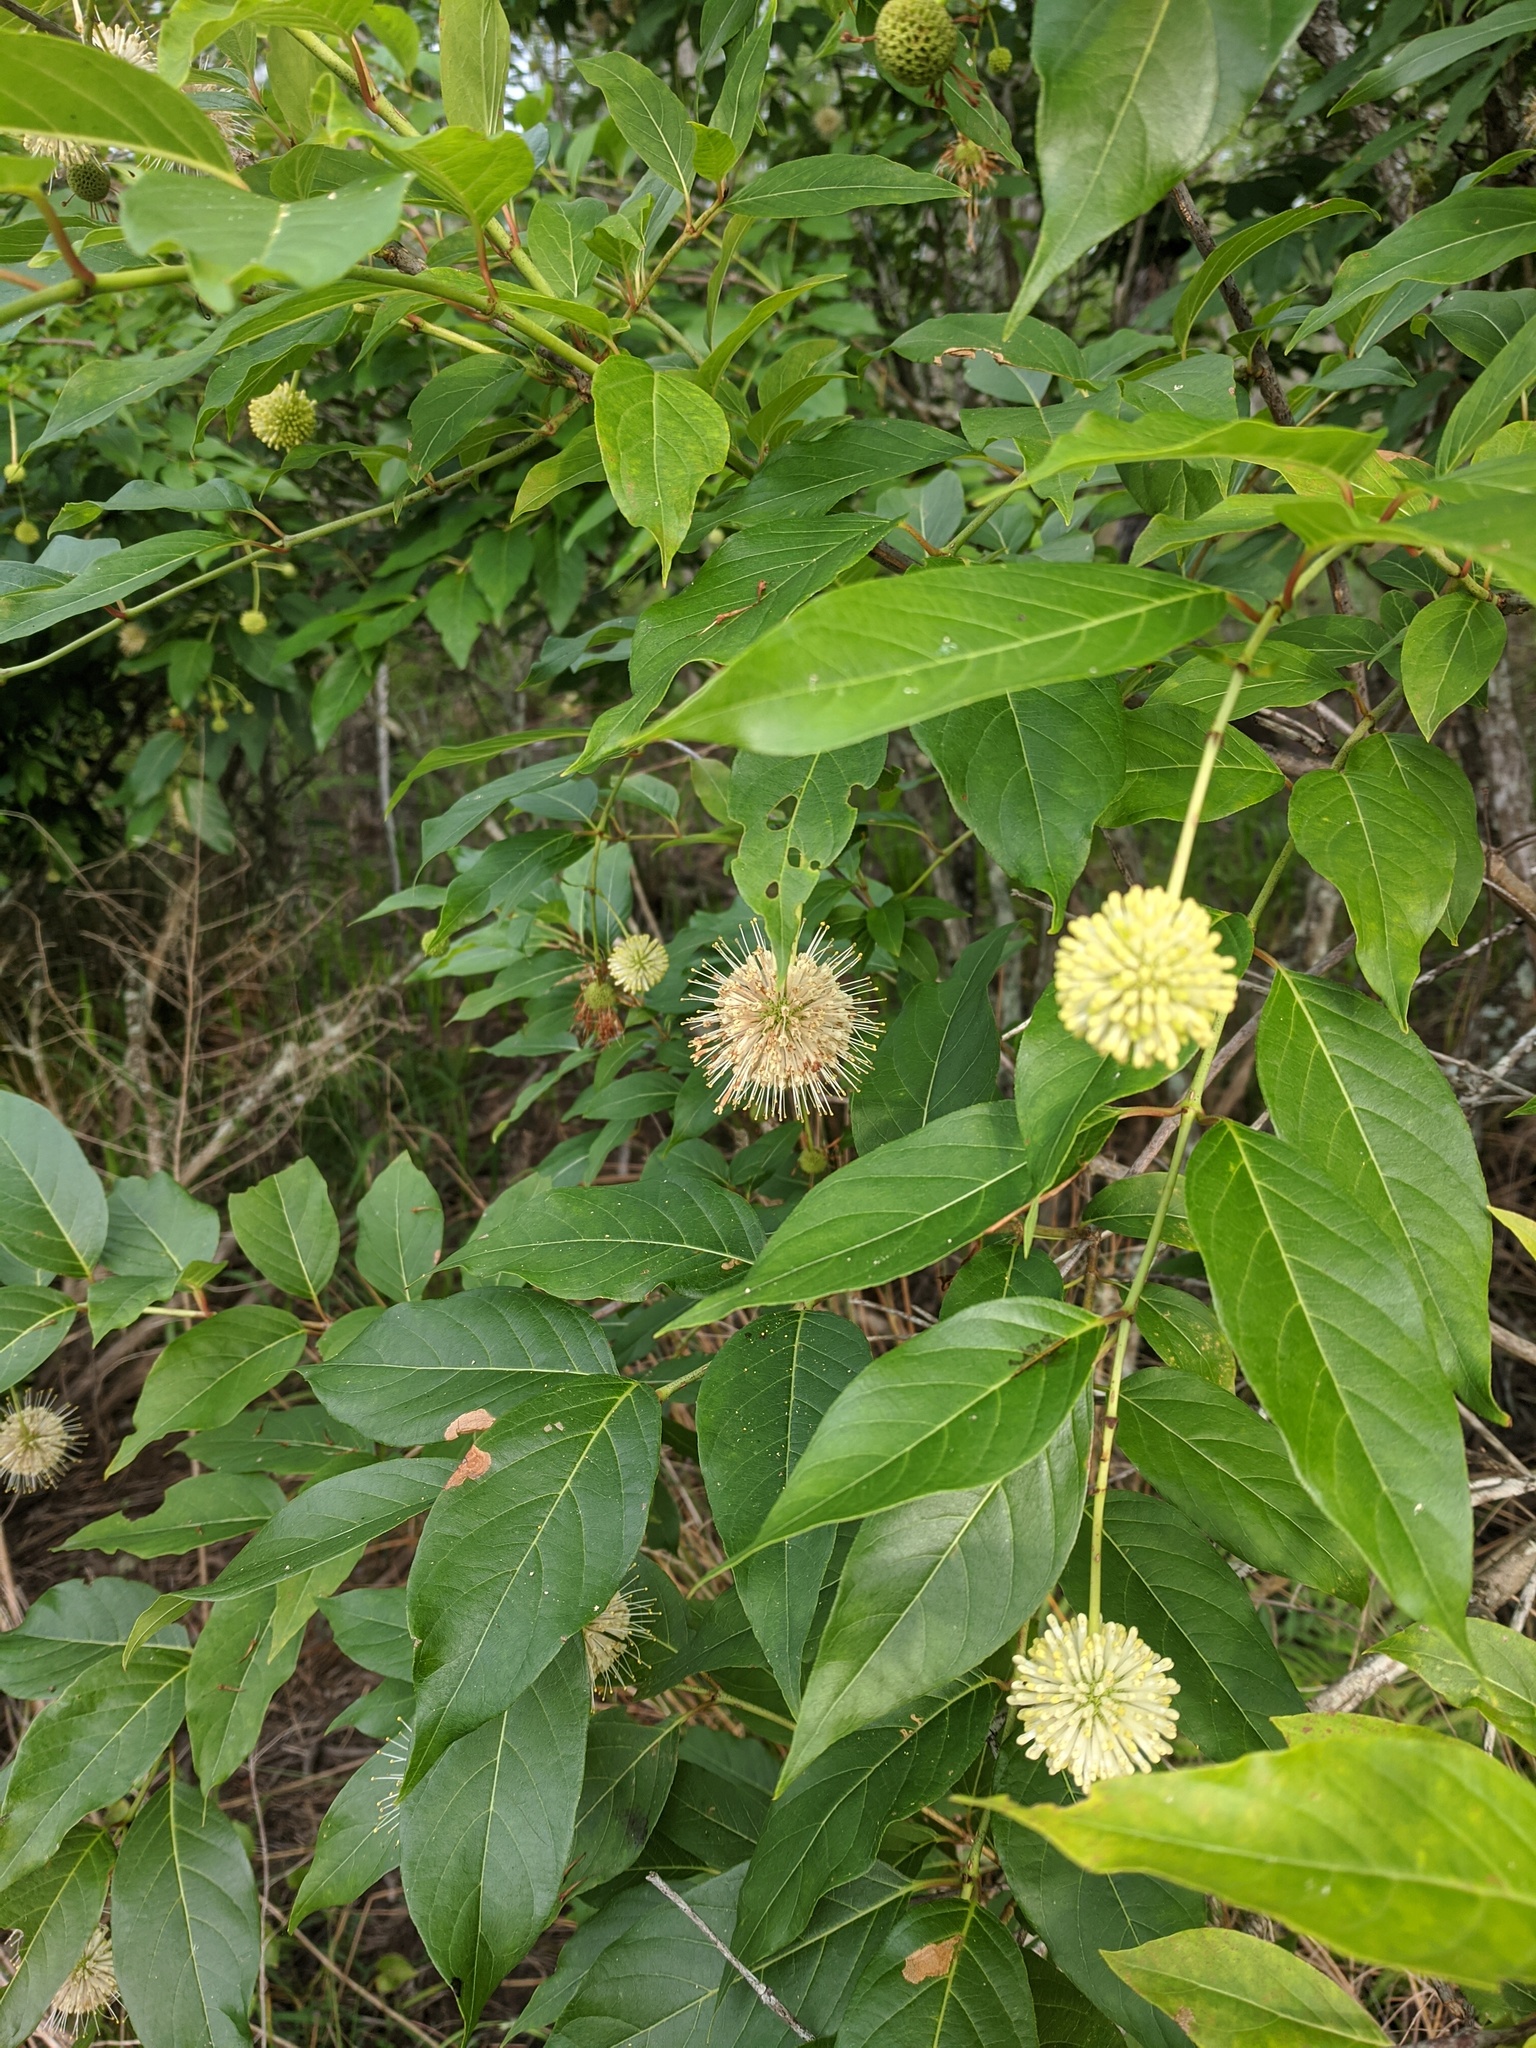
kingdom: Plantae
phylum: Tracheophyta
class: Magnoliopsida
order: Gentianales
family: Rubiaceae
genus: Cephalanthus
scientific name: Cephalanthus occidentalis
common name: Button-willow
